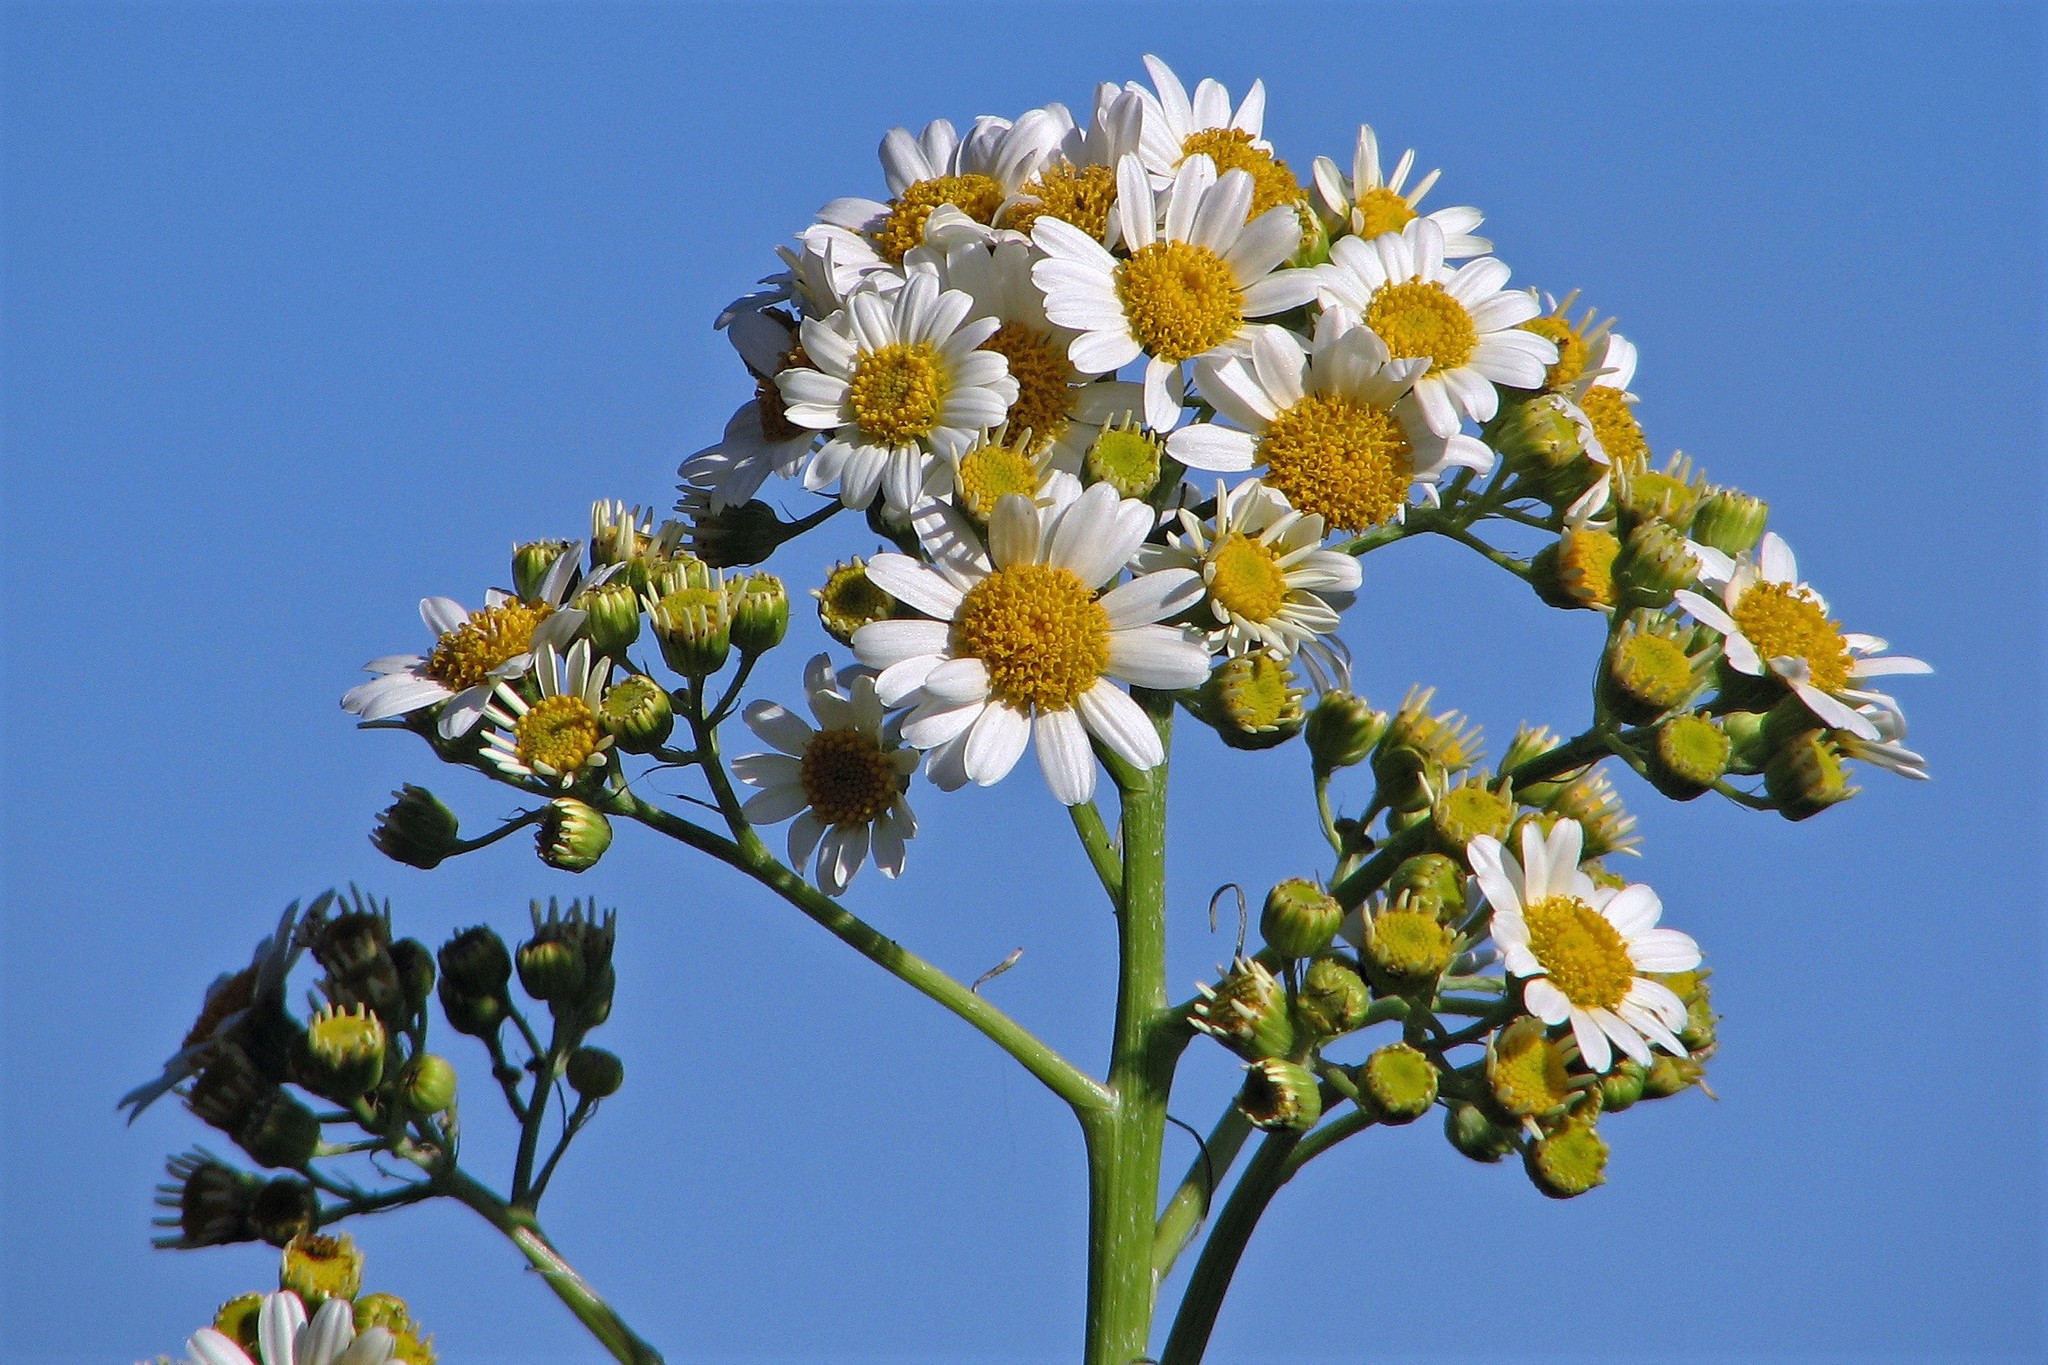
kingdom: Plantae
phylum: Tracheophyta
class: Magnoliopsida
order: Asterales
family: Asteraceae
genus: Senecio
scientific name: Senecio bonariensis
